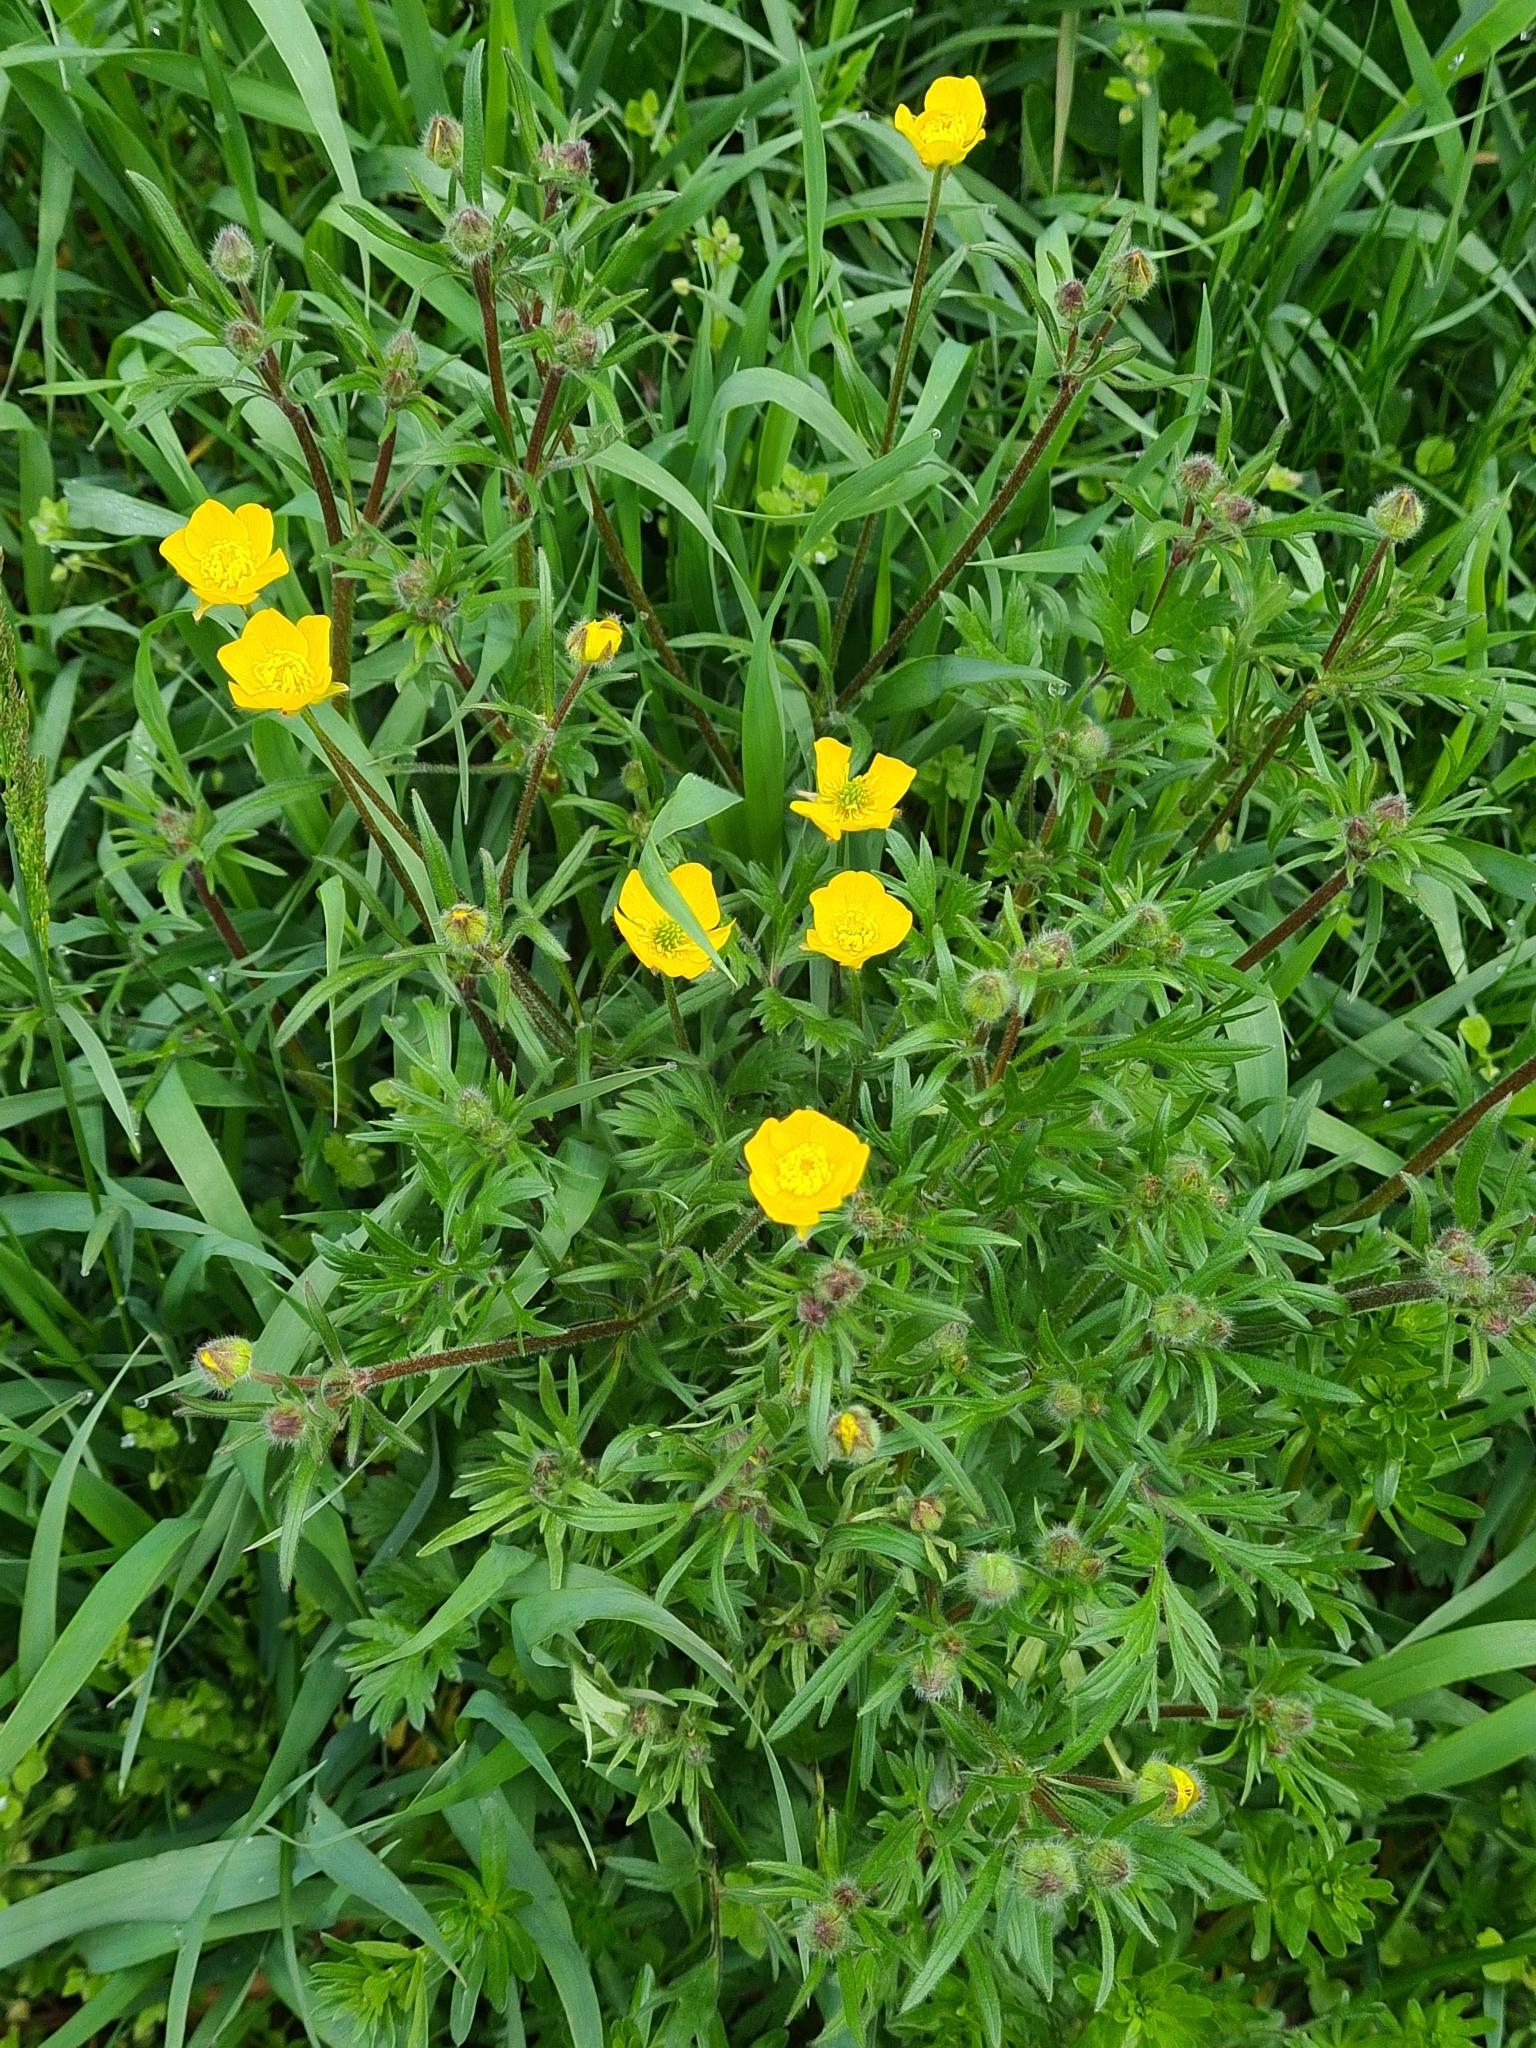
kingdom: Plantae
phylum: Tracheophyta
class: Magnoliopsida
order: Ranunculales
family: Ranunculaceae
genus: Ranunculus
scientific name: Ranunculus bulbosus
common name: Bulbous buttercup
